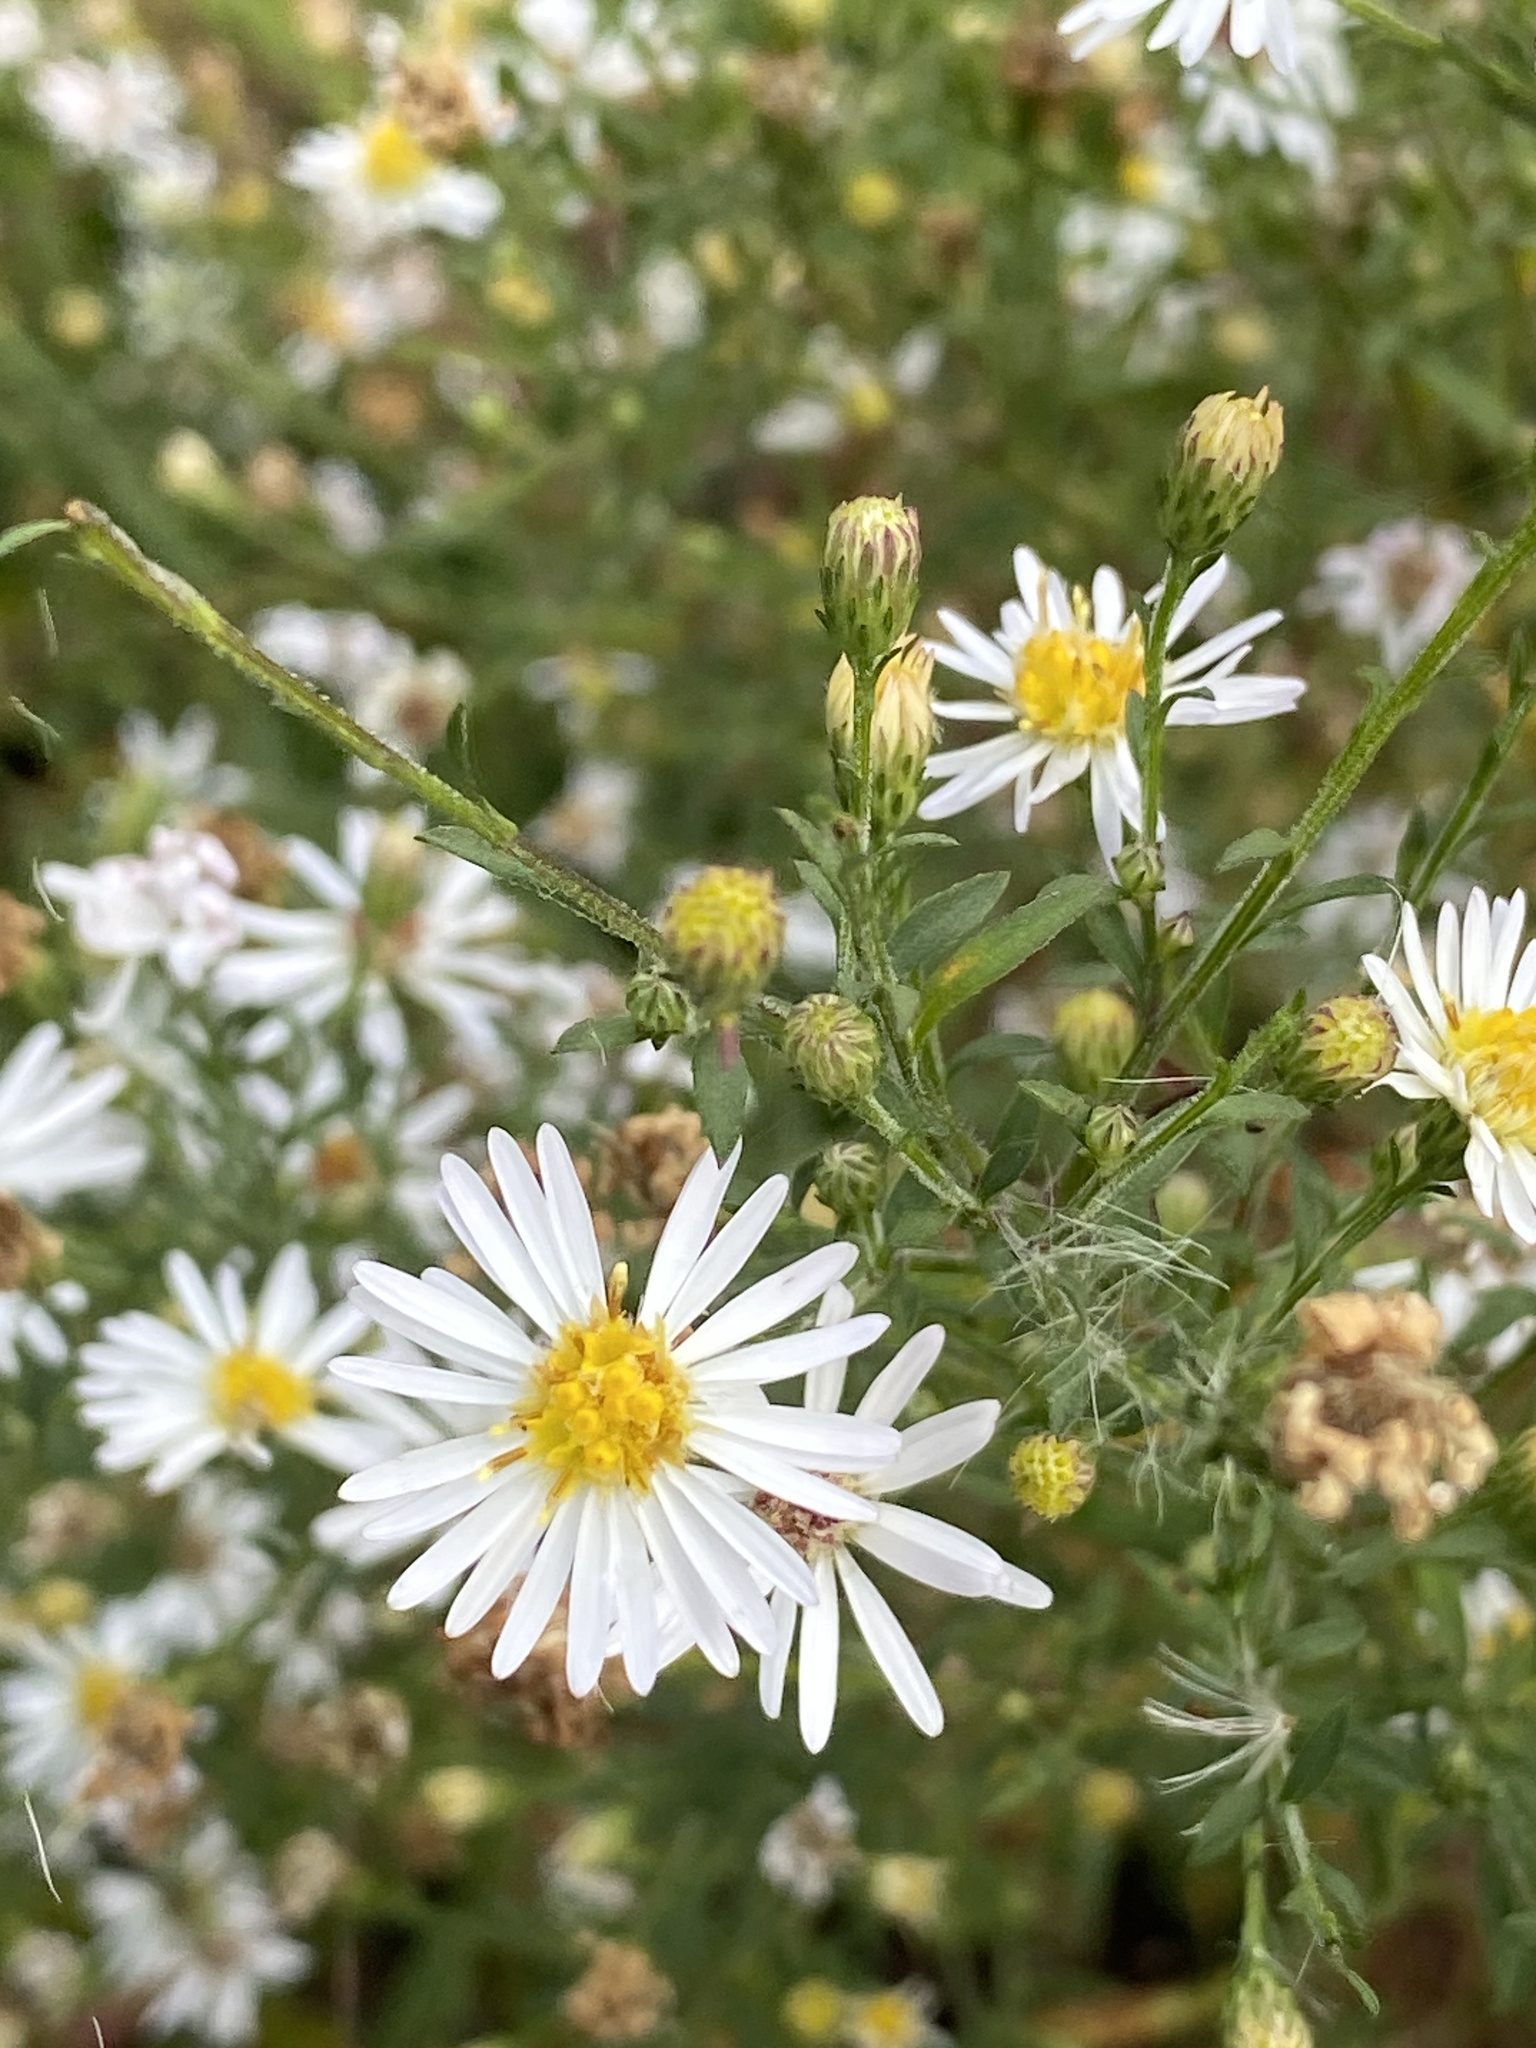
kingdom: Plantae
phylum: Tracheophyta
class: Magnoliopsida
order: Asterales
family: Asteraceae
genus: Symphyotrichum
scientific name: Symphyotrichum lanceolatum
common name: Panicled aster
